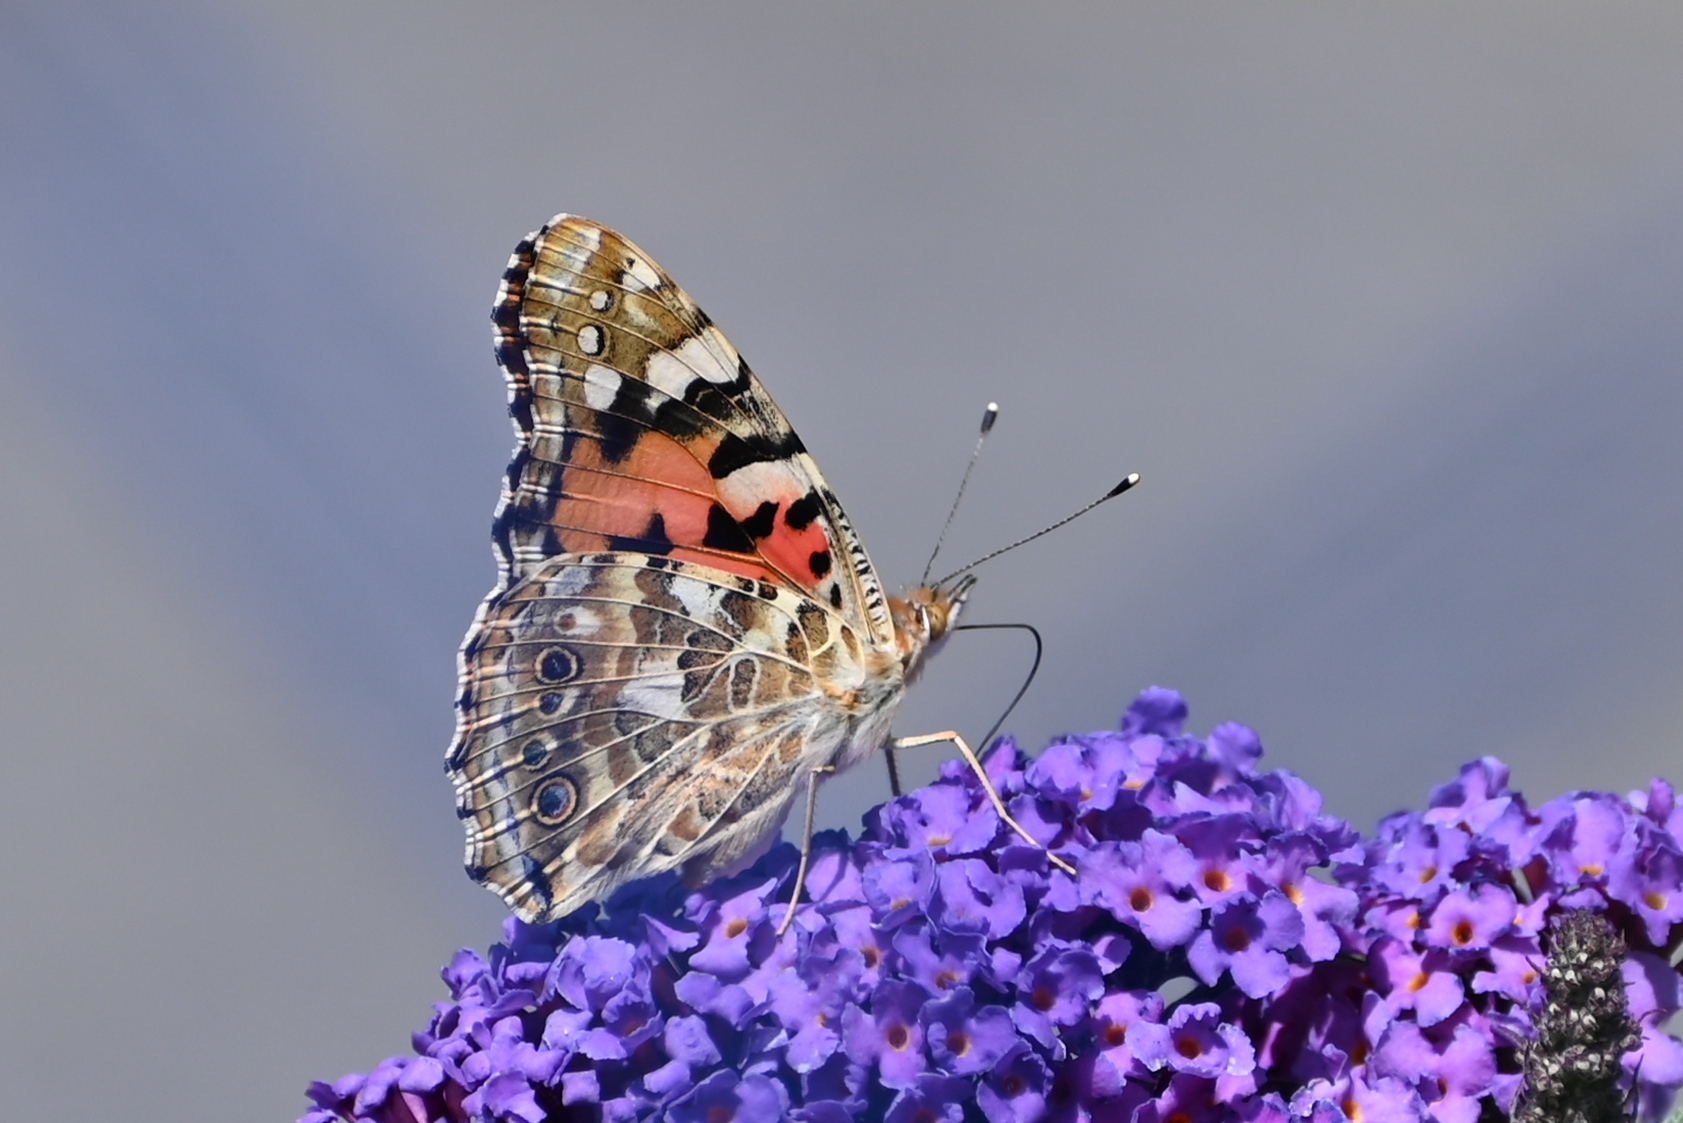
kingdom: Animalia
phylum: Arthropoda
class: Insecta
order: Lepidoptera
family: Nymphalidae
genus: Vanessa
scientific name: Vanessa cardui
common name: Painted lady
